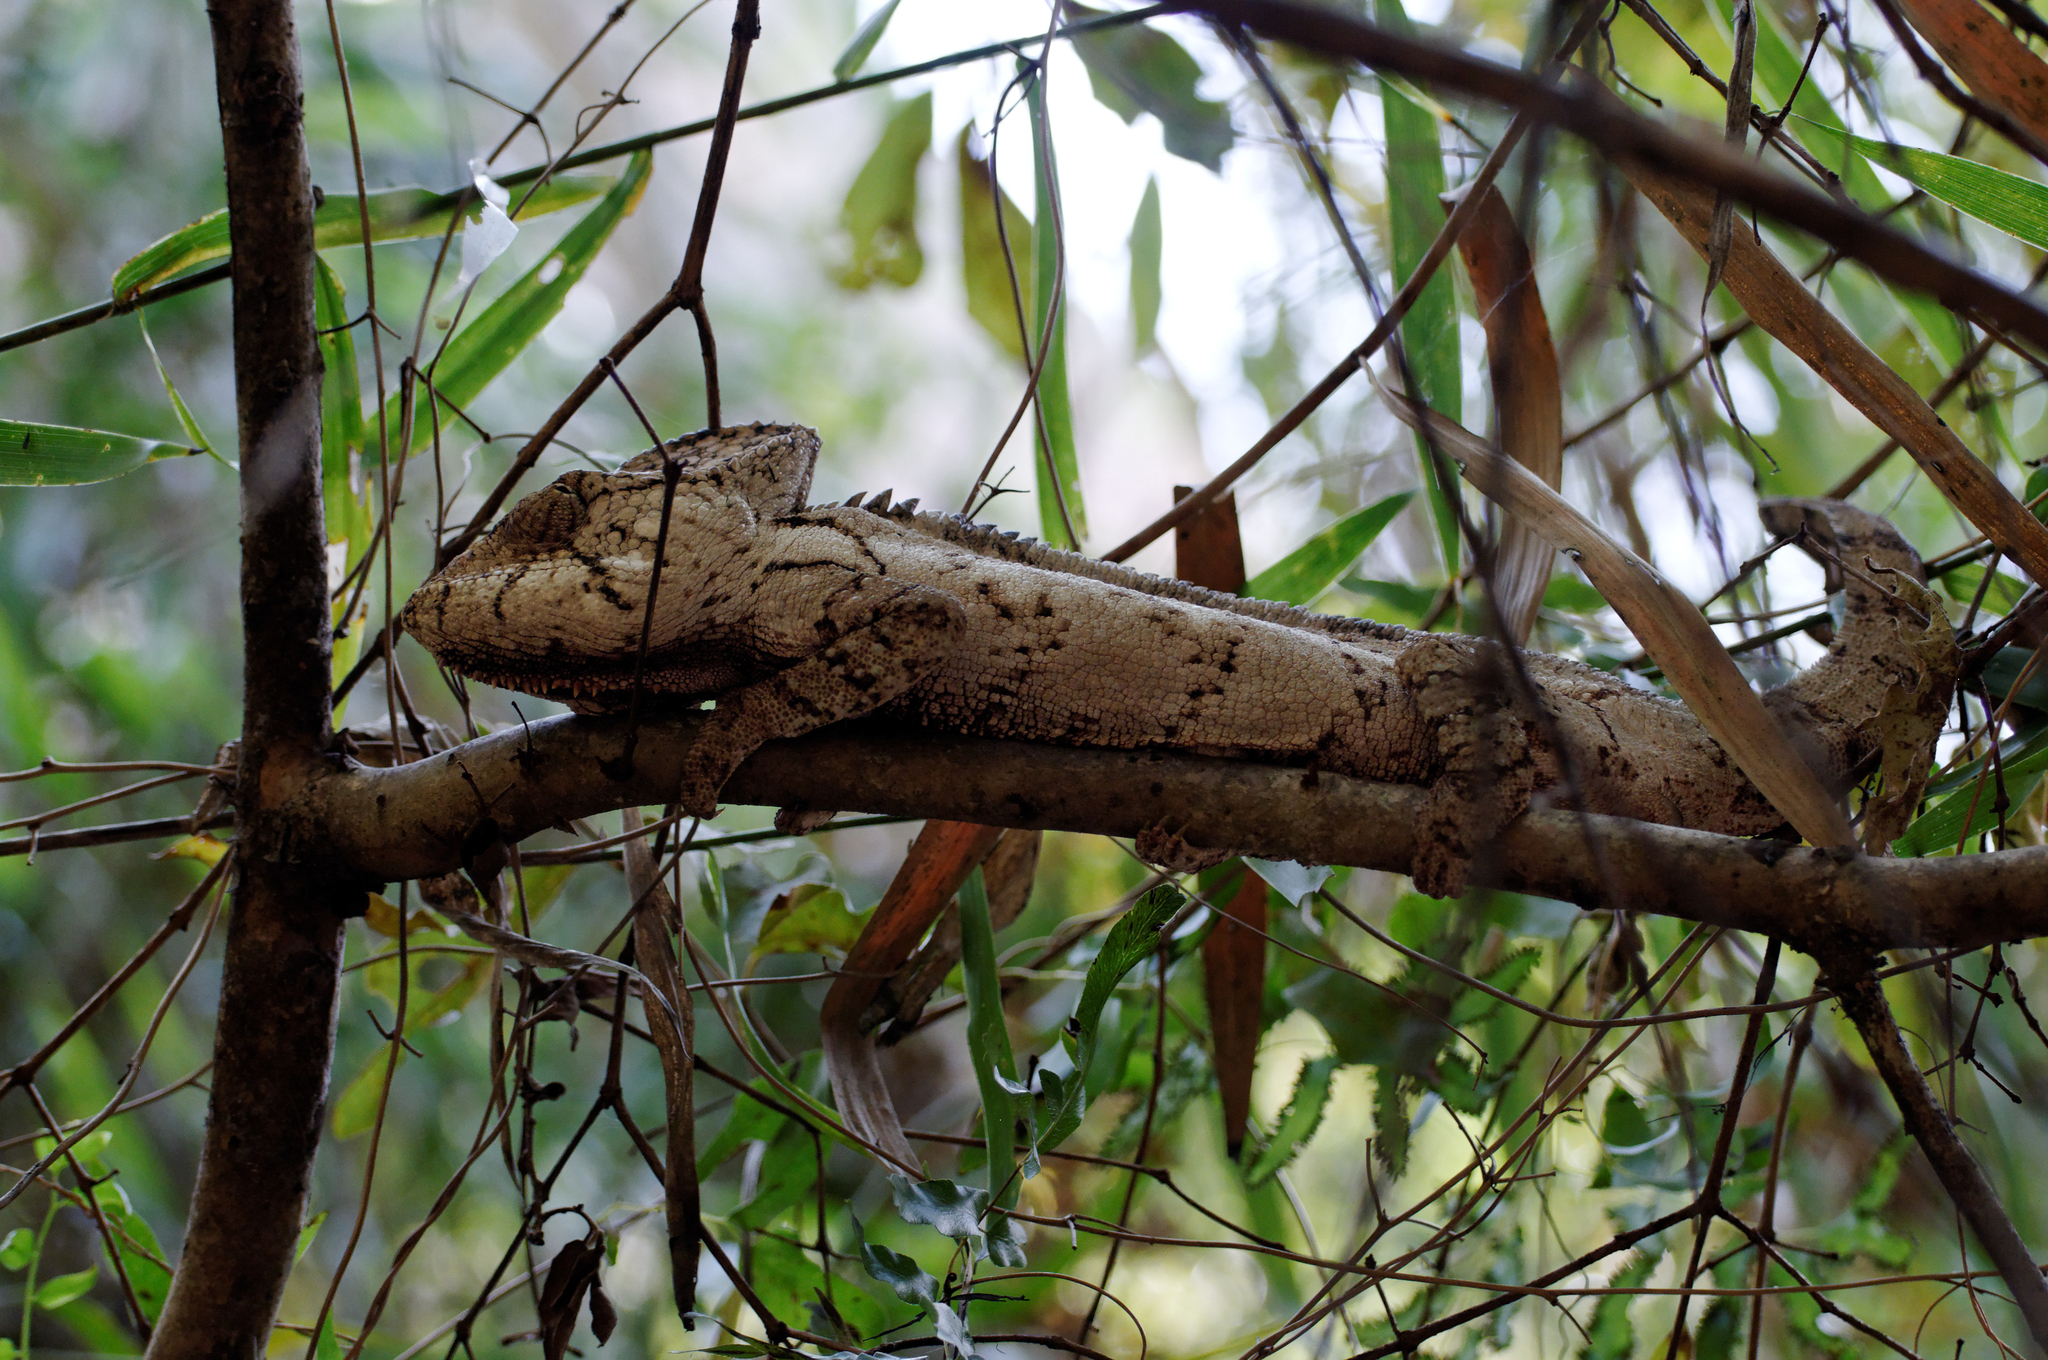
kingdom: Animalia
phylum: Chordata
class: Squamata
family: Chamaeleonidae
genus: Furcifer
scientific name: Furcifer oustaleti
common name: Oustalet's chameleon
